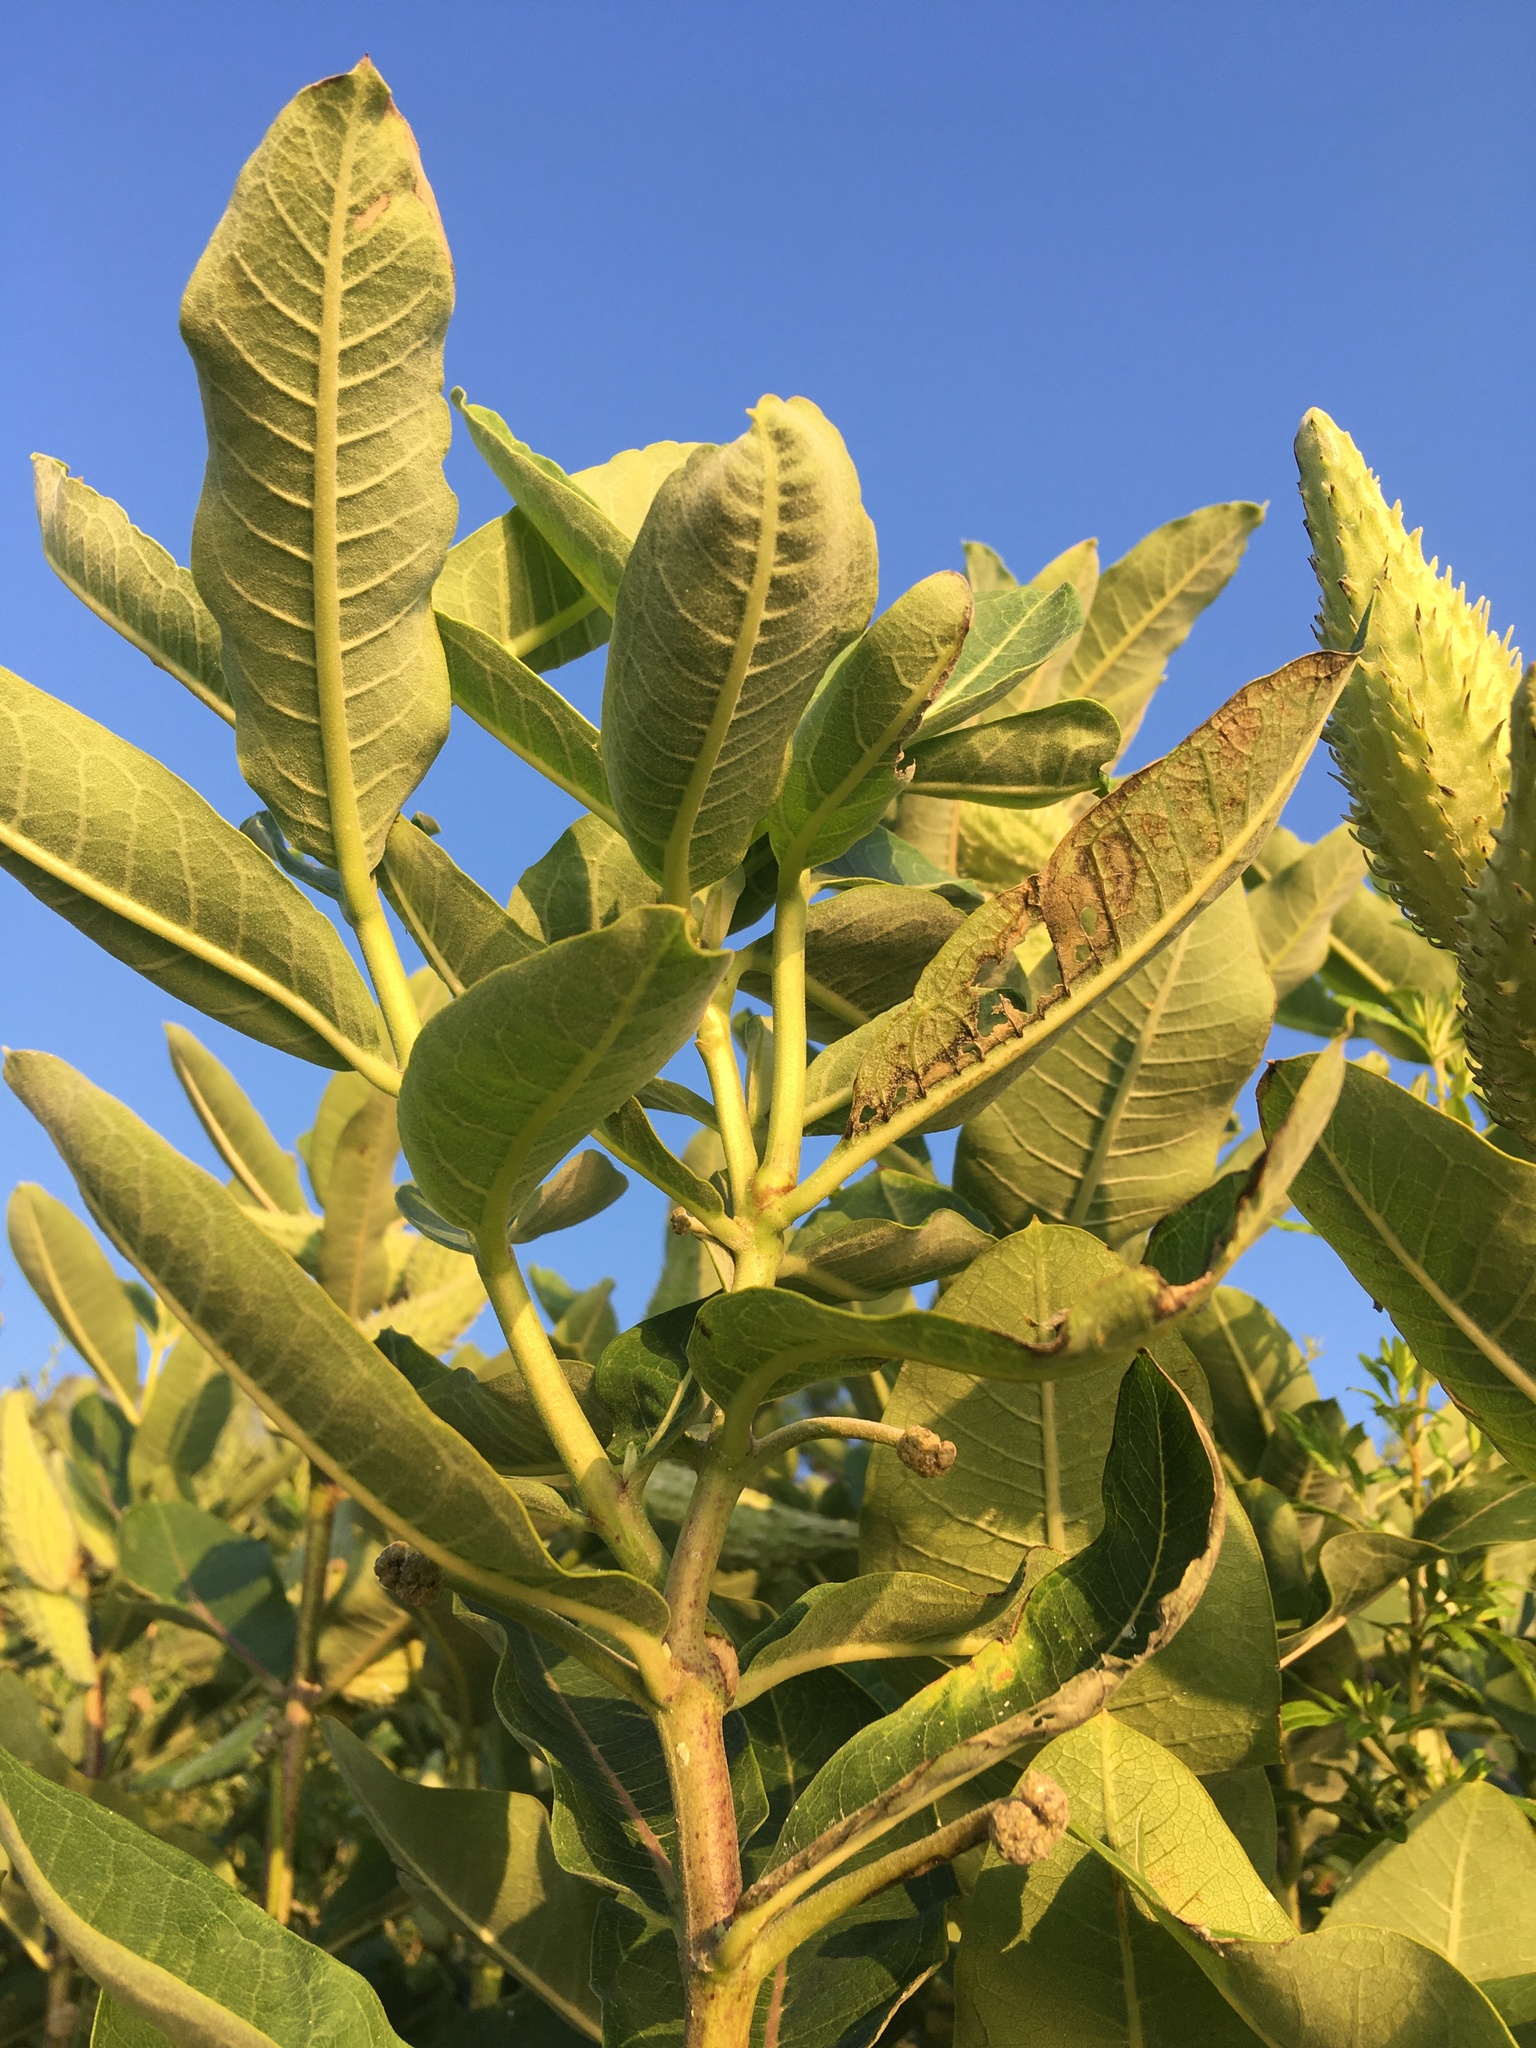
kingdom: Plantae
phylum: Tracheophyta
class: Magnoliopsida
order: Gentianales
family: Apocynaceae
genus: Asclepias
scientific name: Asclepias syriaca
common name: Common milkweed
